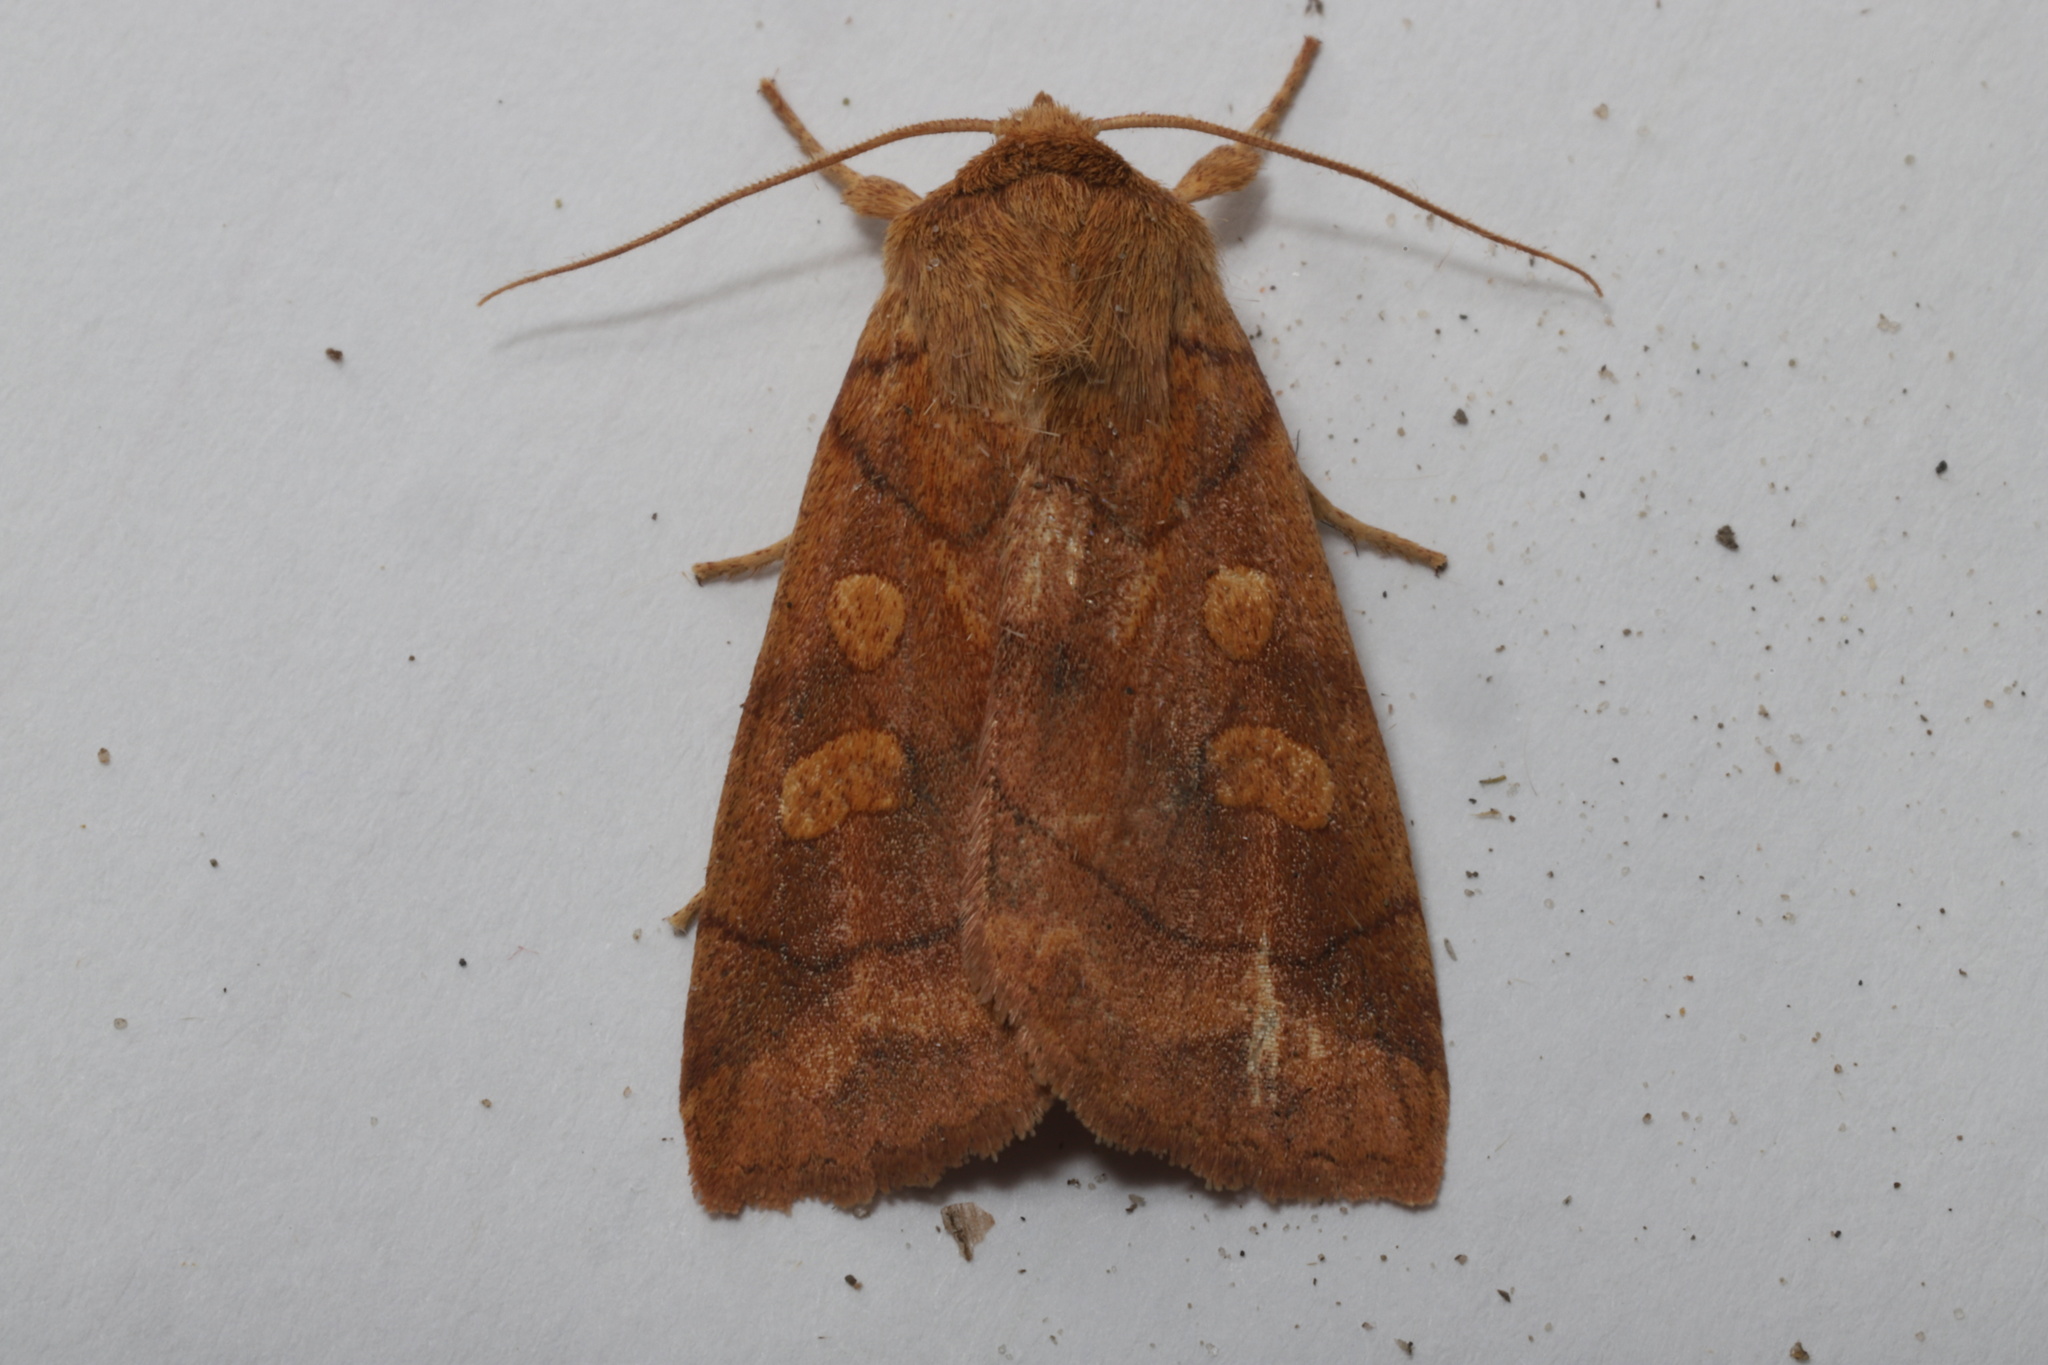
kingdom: Animalia
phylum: Arthropoda
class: Insecta
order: Lepidoptera
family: Noctuidae
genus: Enargia
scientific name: Enargia decolor
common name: Aspen twoleaf tier moth
